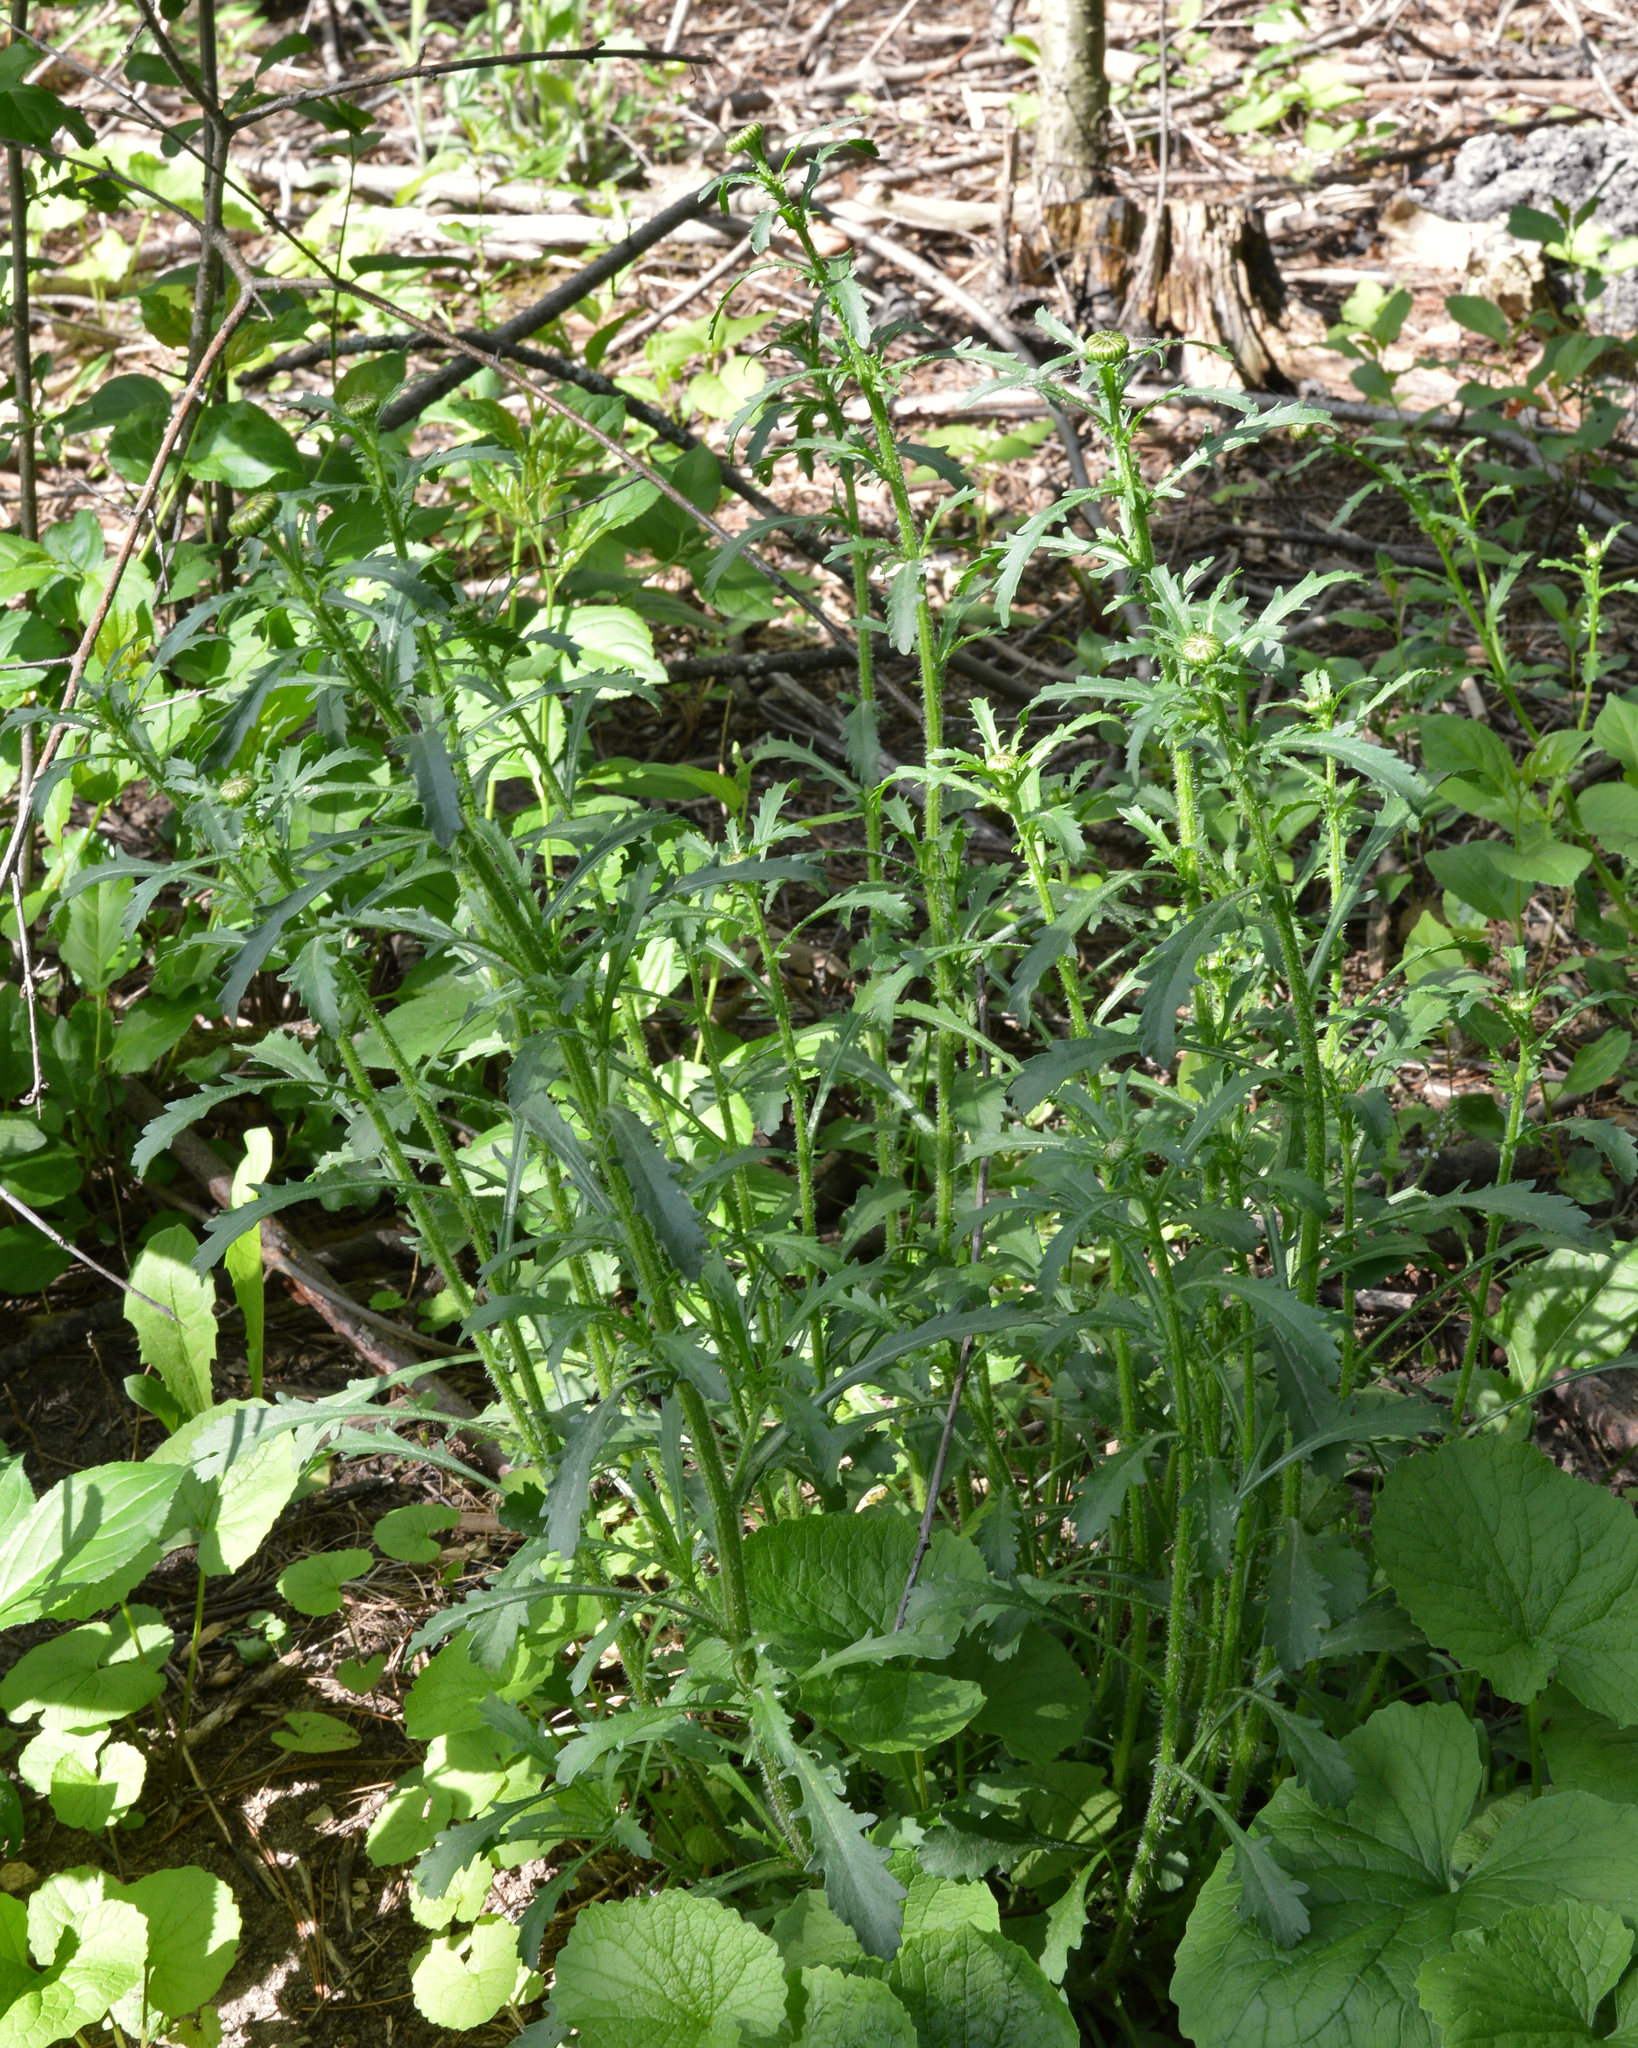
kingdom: Plantae
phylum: Tracheophyta
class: Magnoliopsida
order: Asterales
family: Asteraceae
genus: Leucanthemum
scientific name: Leucanthemum vulgare
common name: Oxeye daisy
